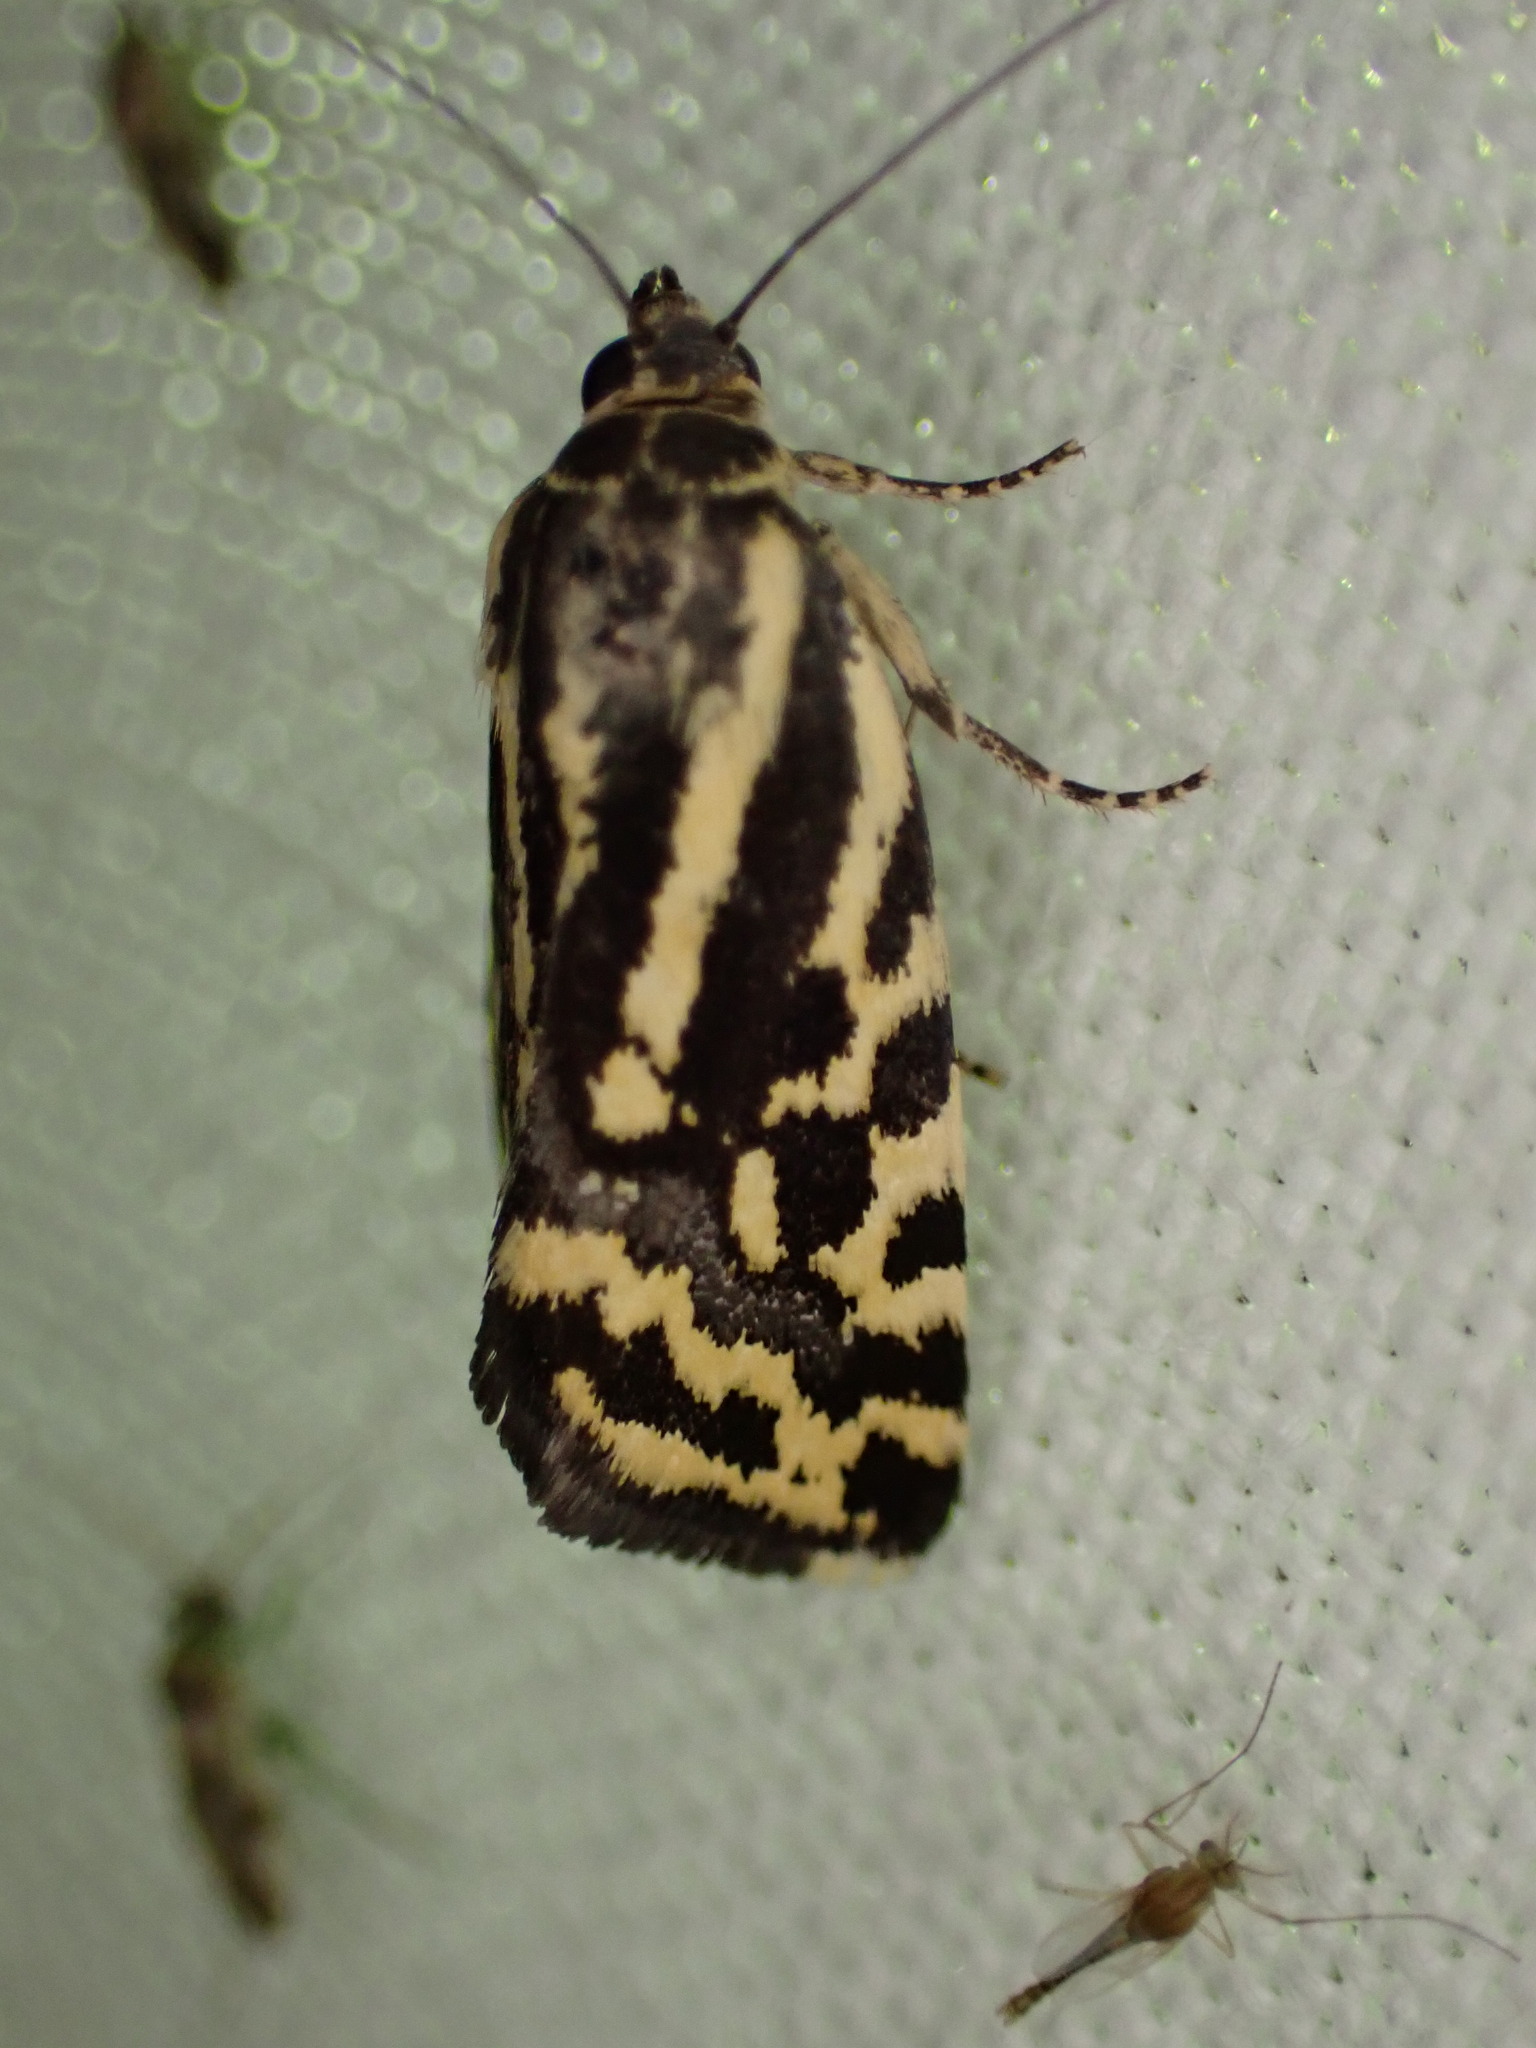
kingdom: Animalia
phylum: Arthropoda
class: Insecta
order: Lepidoptera
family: Noctuidae
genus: Acontia
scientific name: Acontia trabealis
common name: Spotted sulphur
